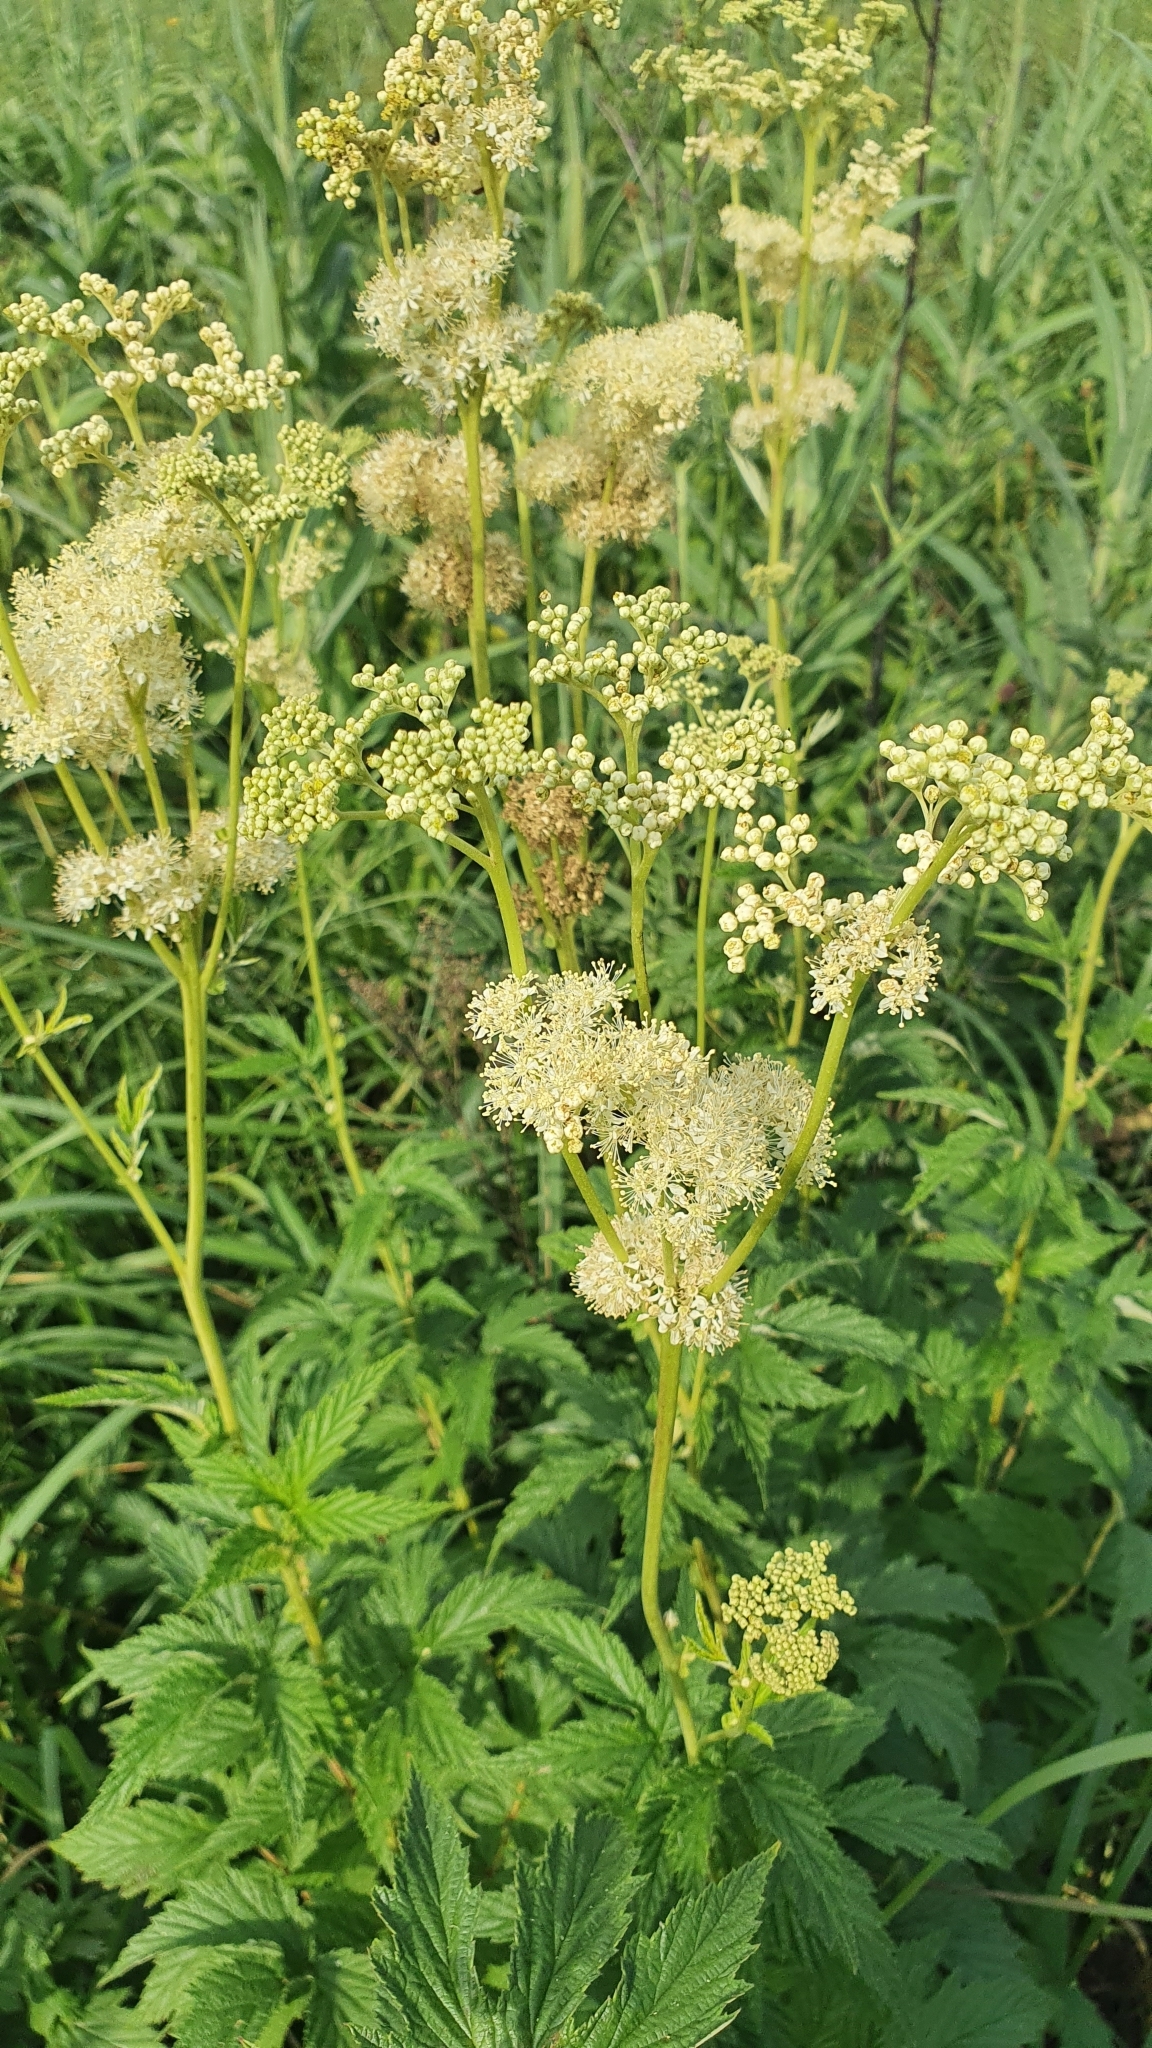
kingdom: Plantae
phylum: Tracheophyta
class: Magnoliopsida
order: Rosales
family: Rosaceae
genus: Filipendula
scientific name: Filipendula ulmaria
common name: Meadowsweet
